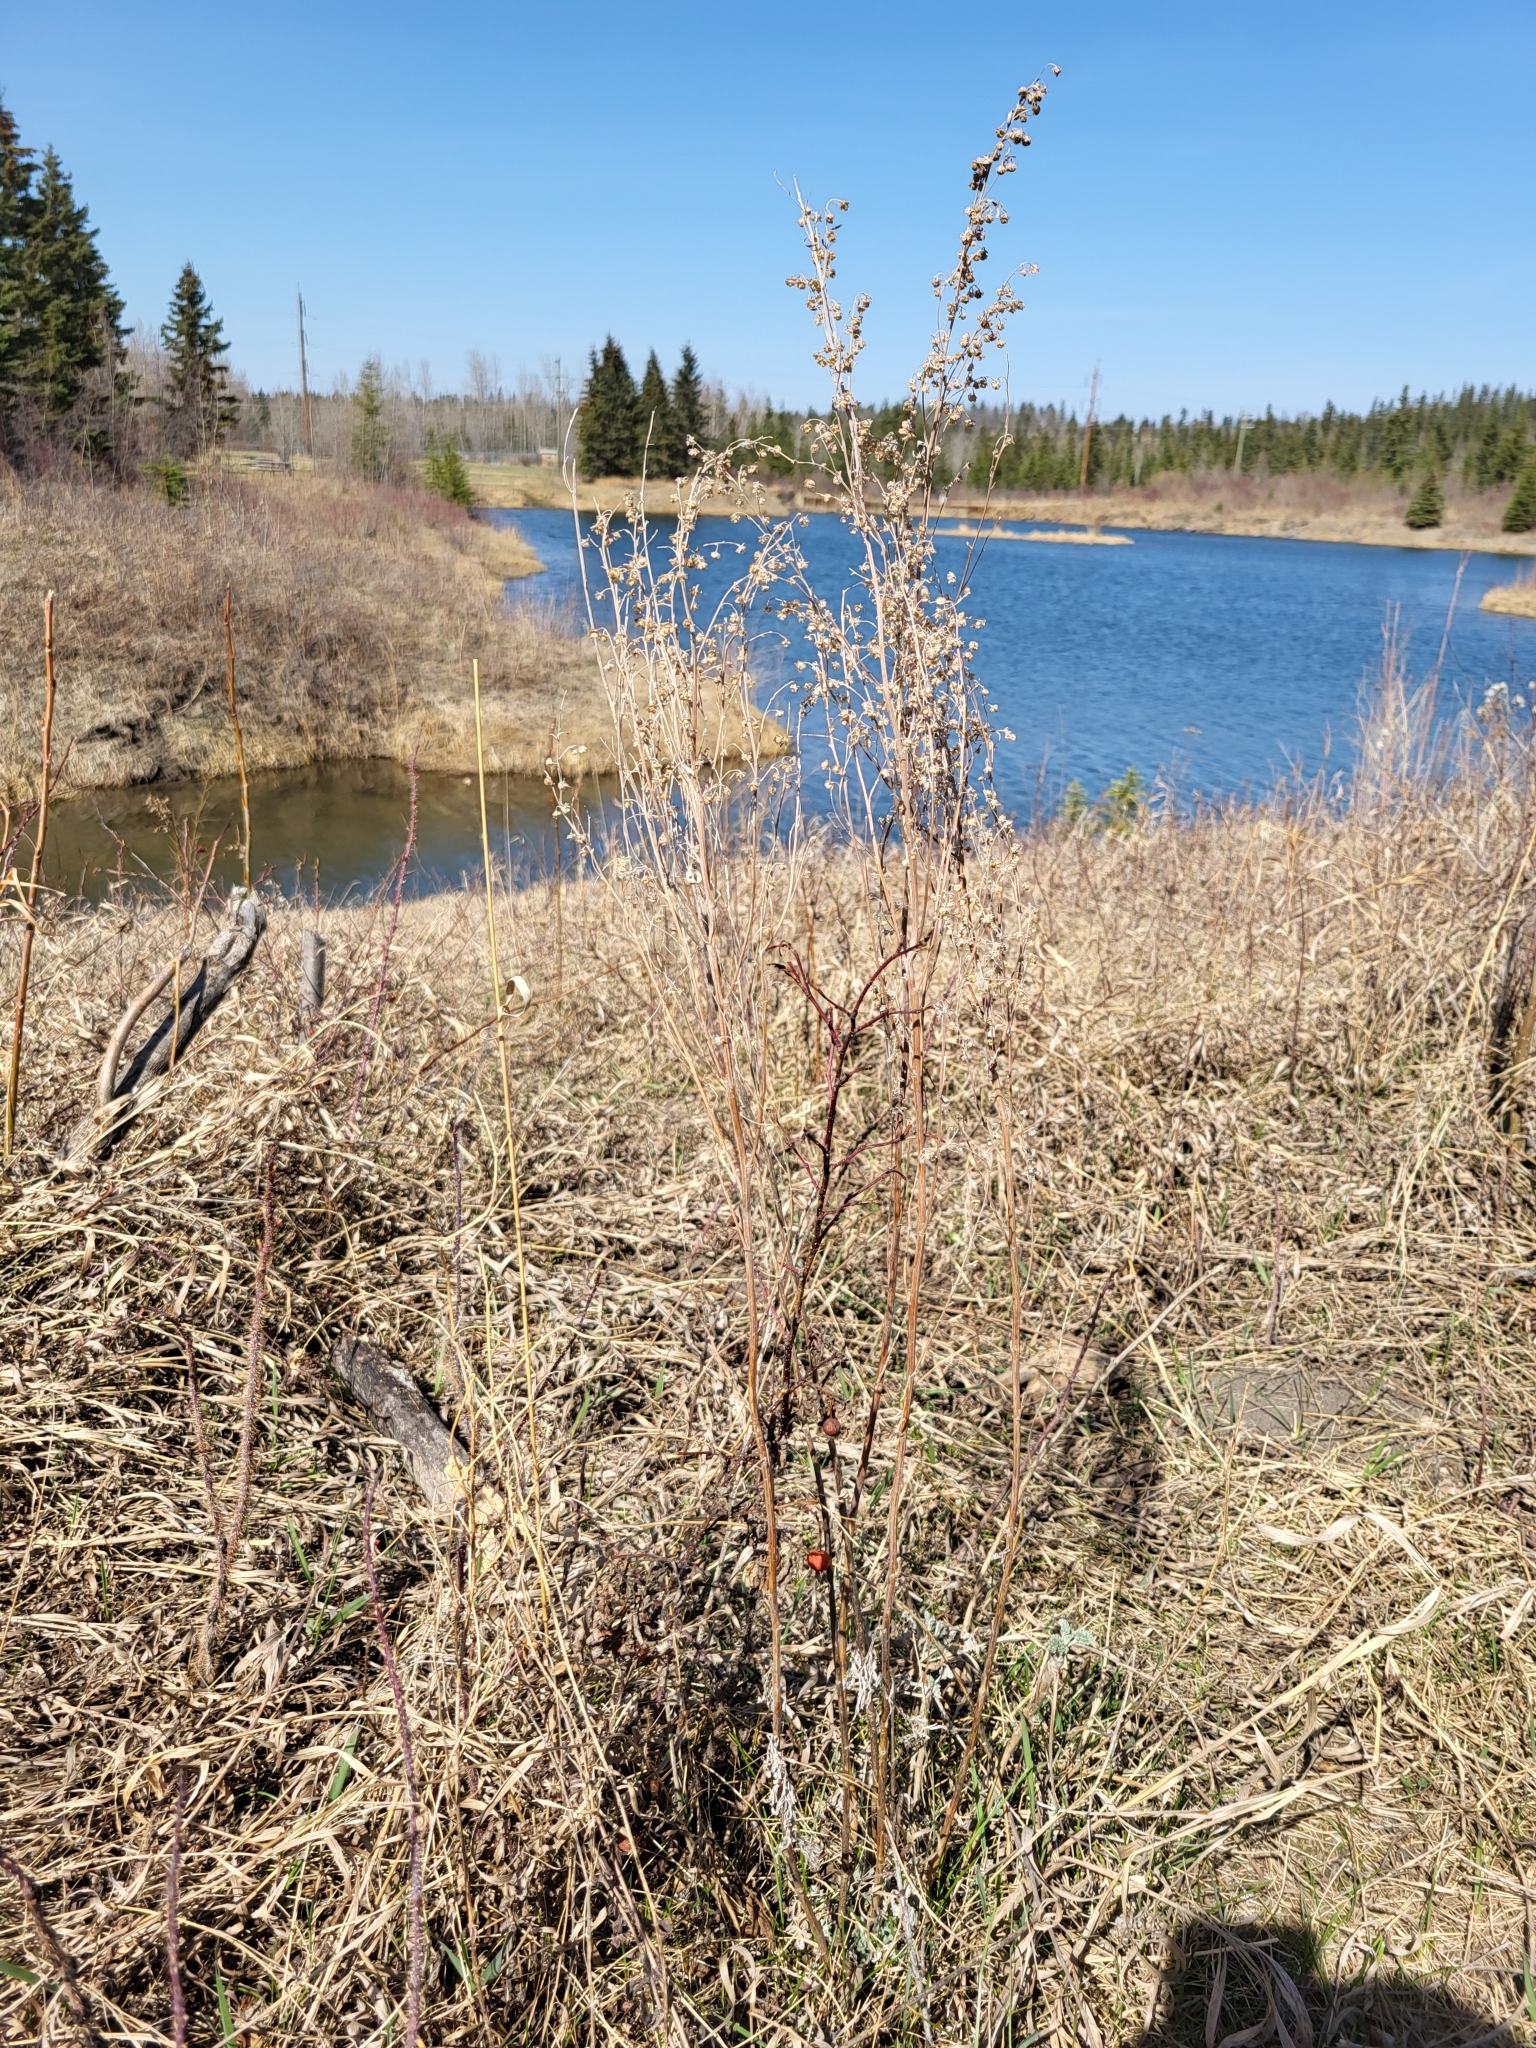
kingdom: Plantae
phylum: Tracheophyta
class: Magnoliopsida
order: Asterales
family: Asteraceae
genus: Artemisia
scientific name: Artemisia absinthium
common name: Wormwood
